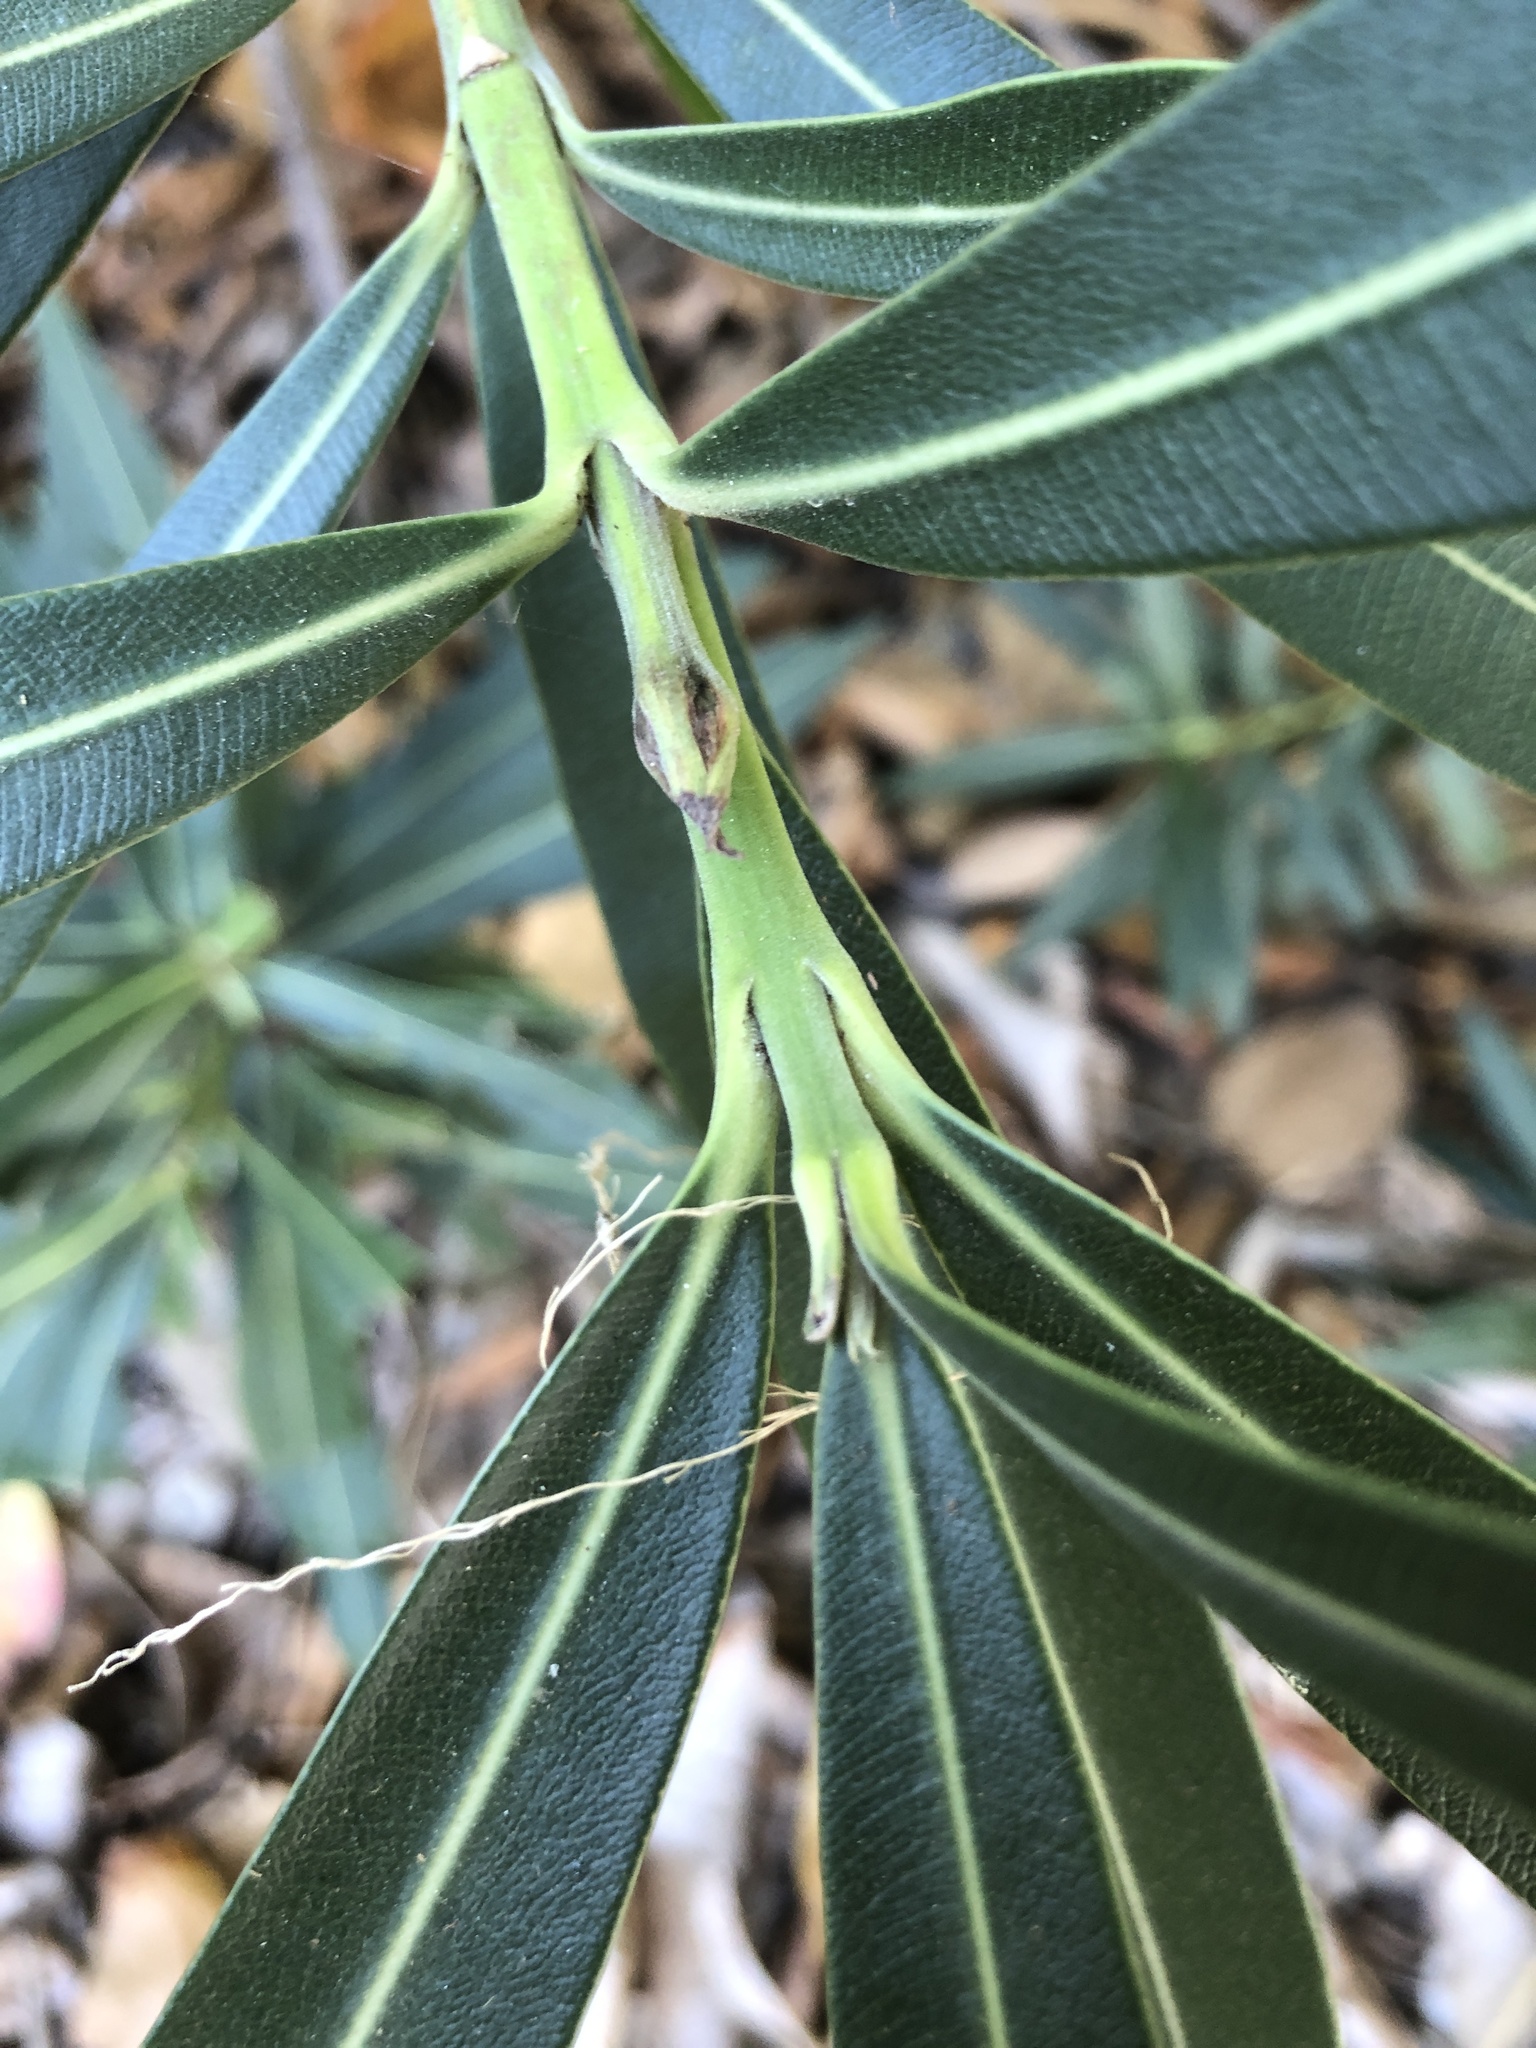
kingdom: Plantae
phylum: Tracheophyta
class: Magnoliopsida
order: Gentianales
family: Apocynaceae
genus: Nerium
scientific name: Nerium oleander
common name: Oleander
